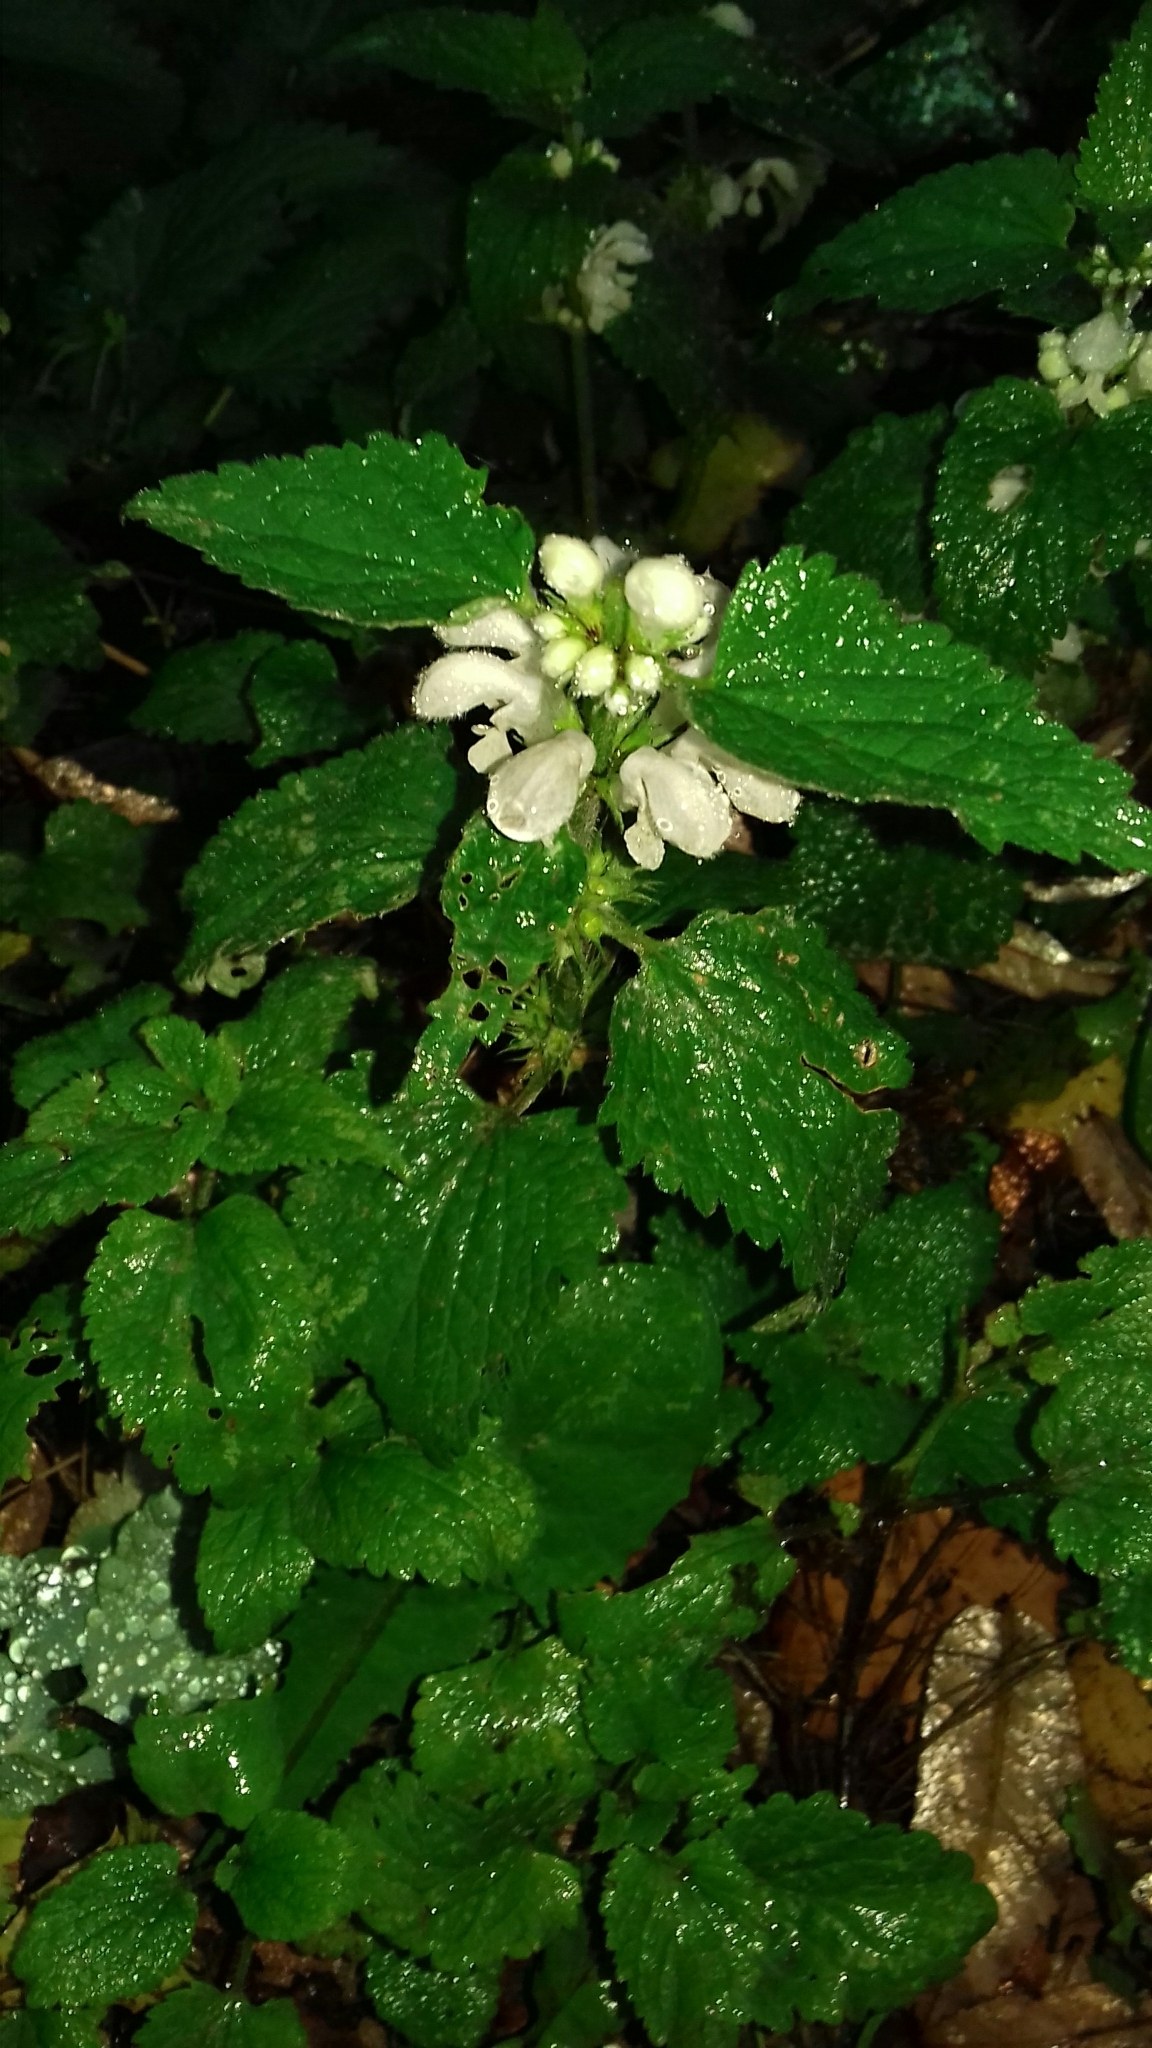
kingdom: Plantae
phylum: Tracheophyta
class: Magnoliopsida
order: Lamiales
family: Lamiaceae
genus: Lamium
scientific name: Lamium album
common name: White dead-nettle
